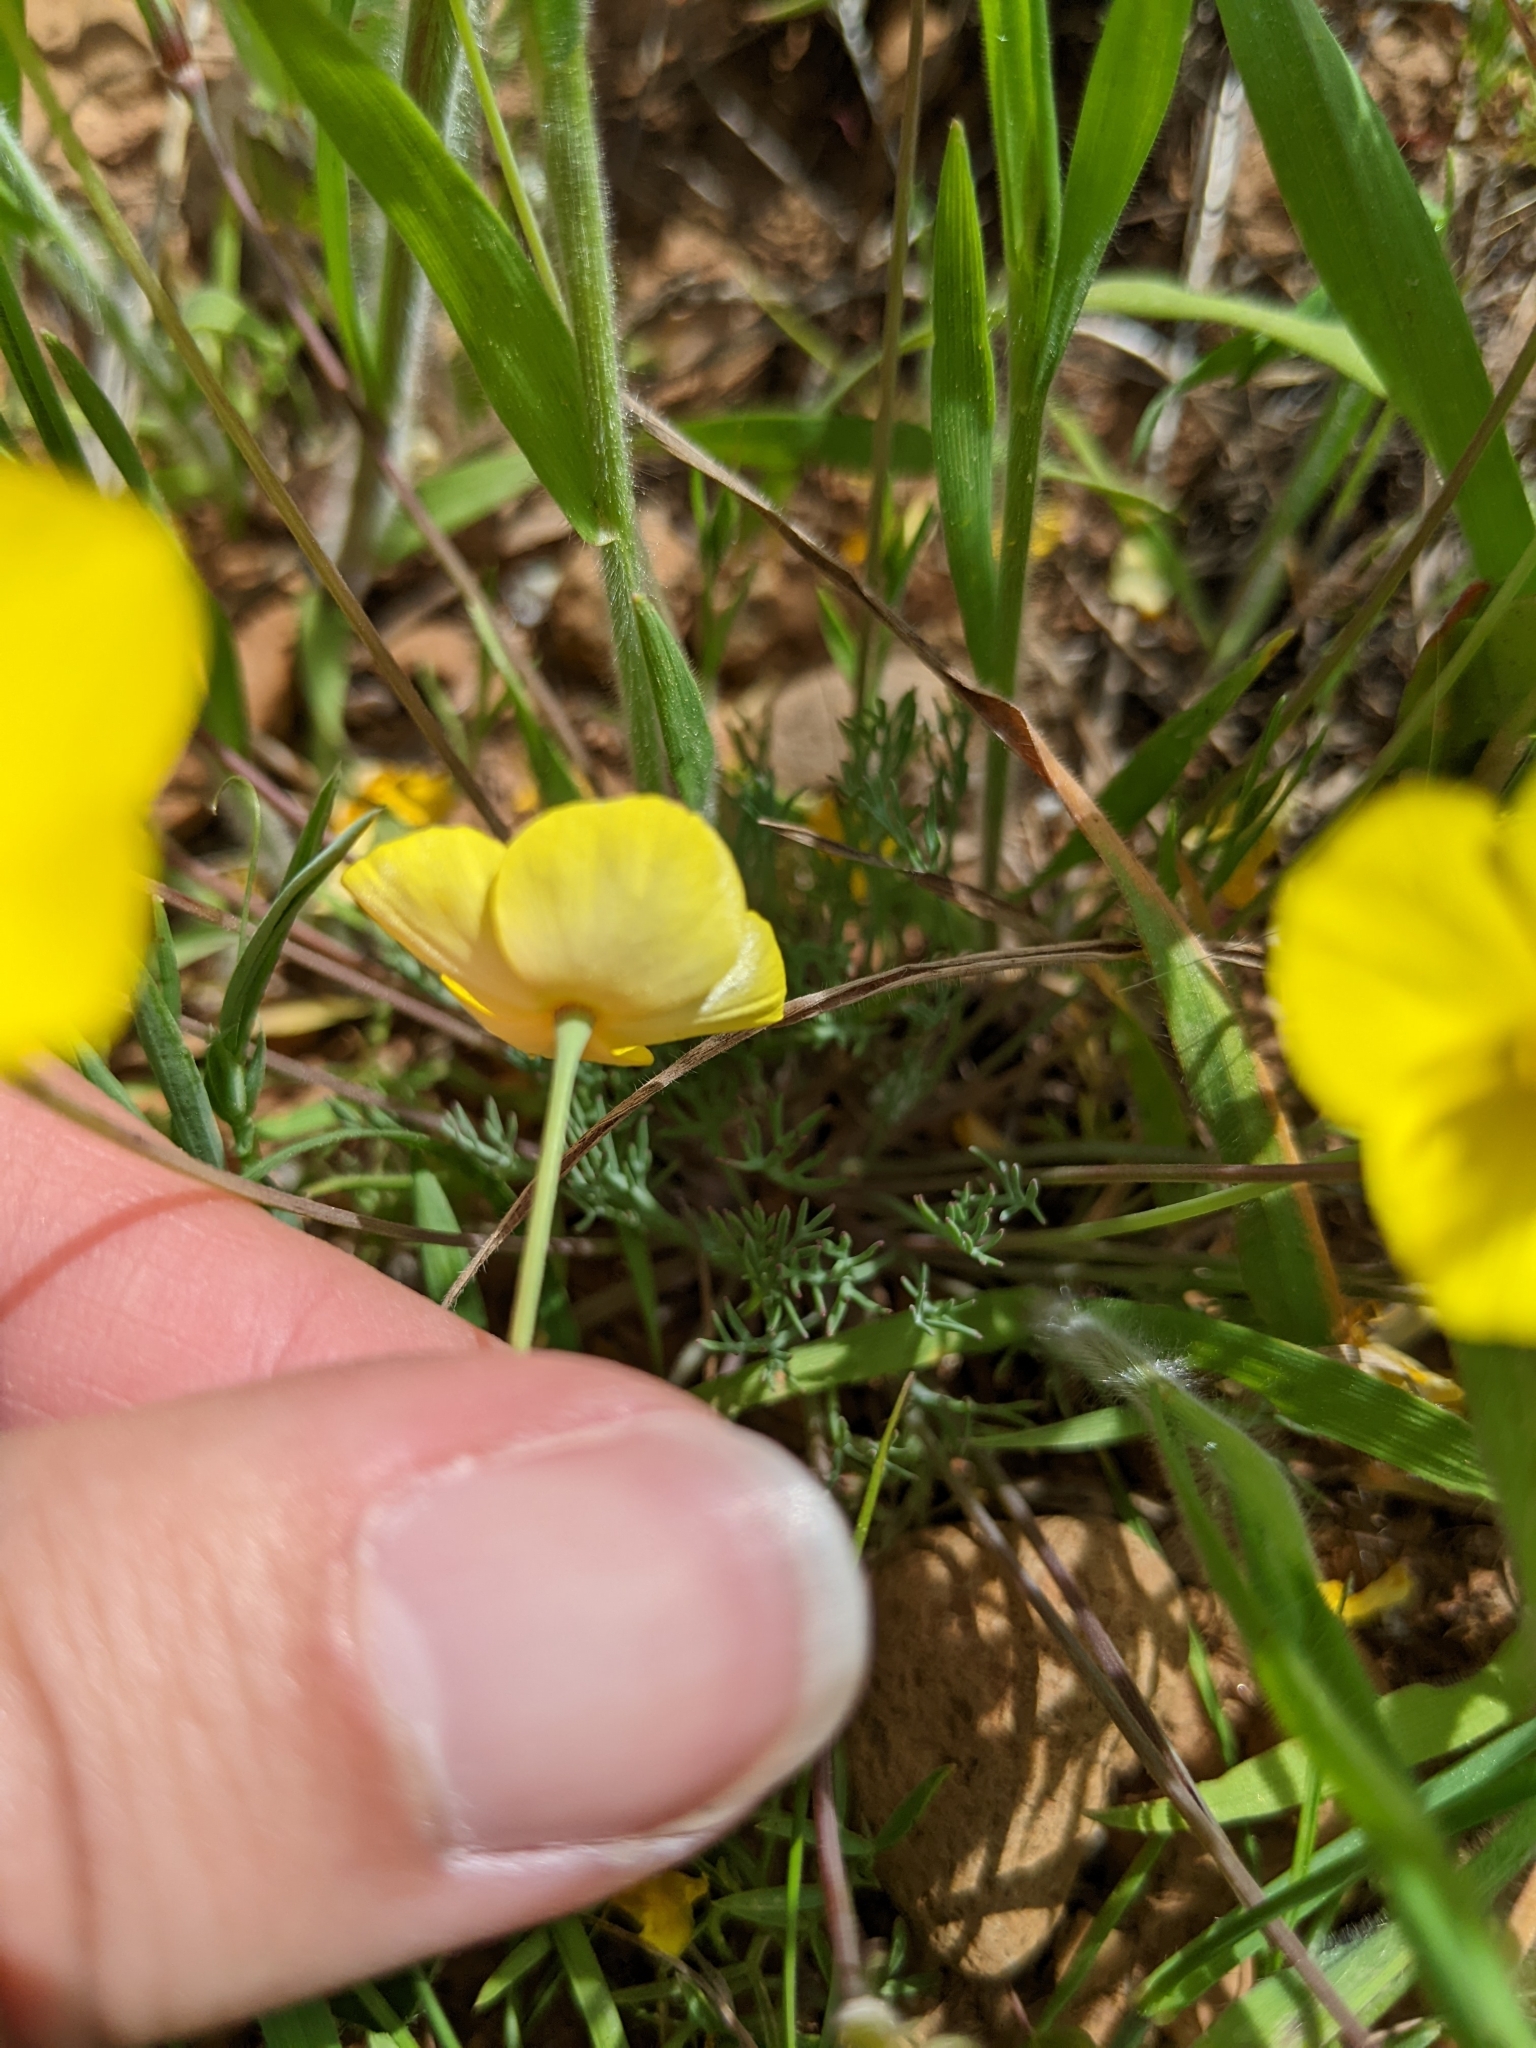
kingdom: Plantae
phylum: Tracheophyta
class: Magnoliopsida
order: Ranunculales
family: Papaveraceae
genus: Eschscholzia
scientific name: Eschscholzia lobbii
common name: Frying-pans
